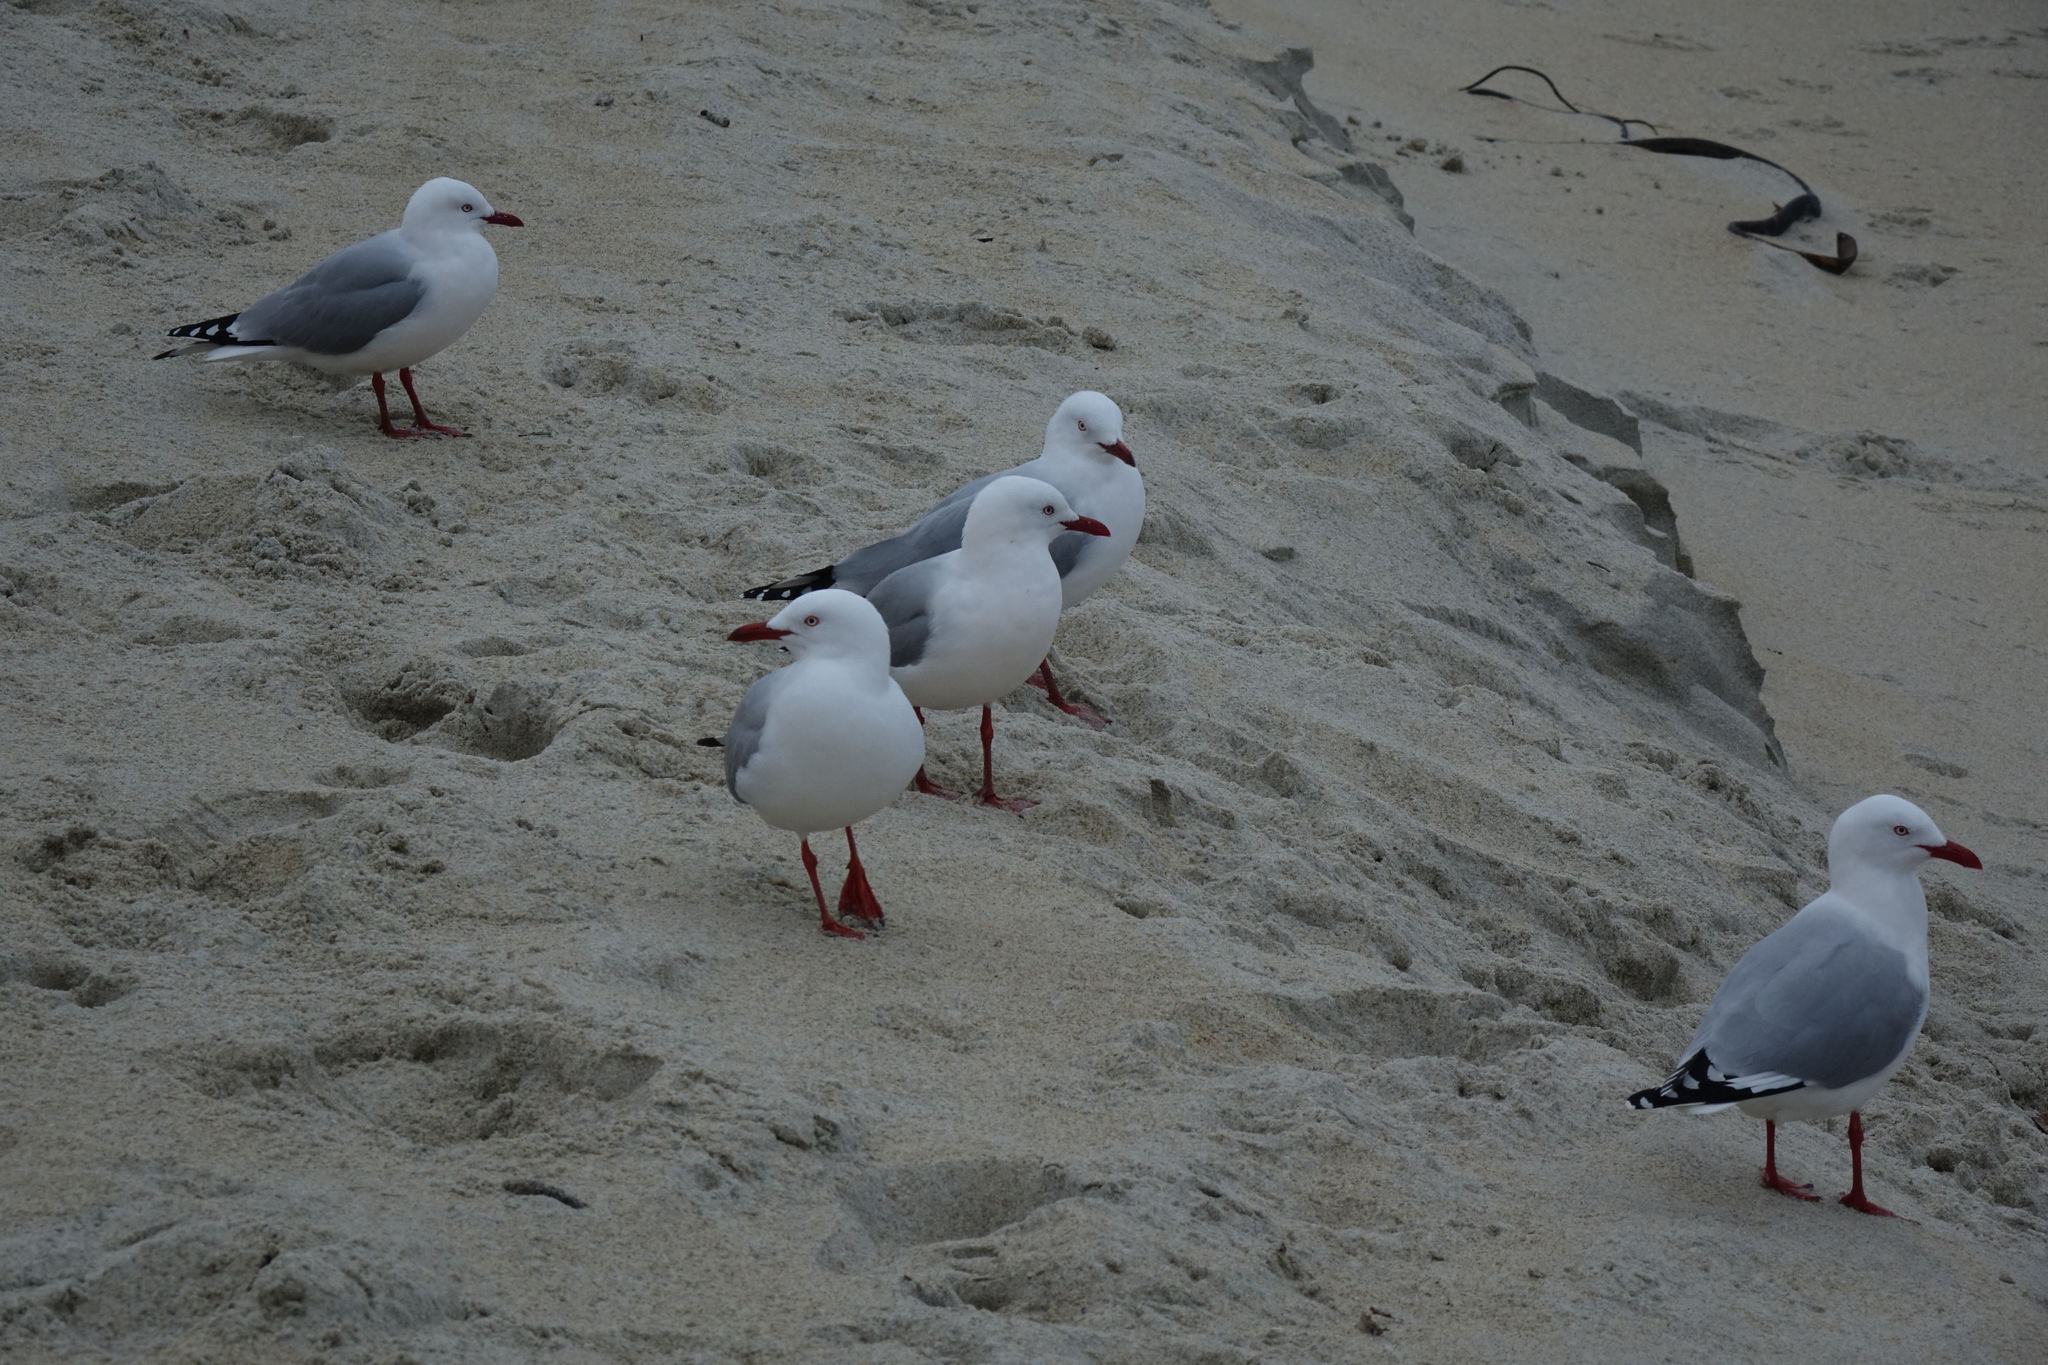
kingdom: Animalia
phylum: Chordata
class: Aves
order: Charadriiformes
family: Laridae
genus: Chroicocephalus
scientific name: Chroicocephalus novaehollandiae
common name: Silver gull
